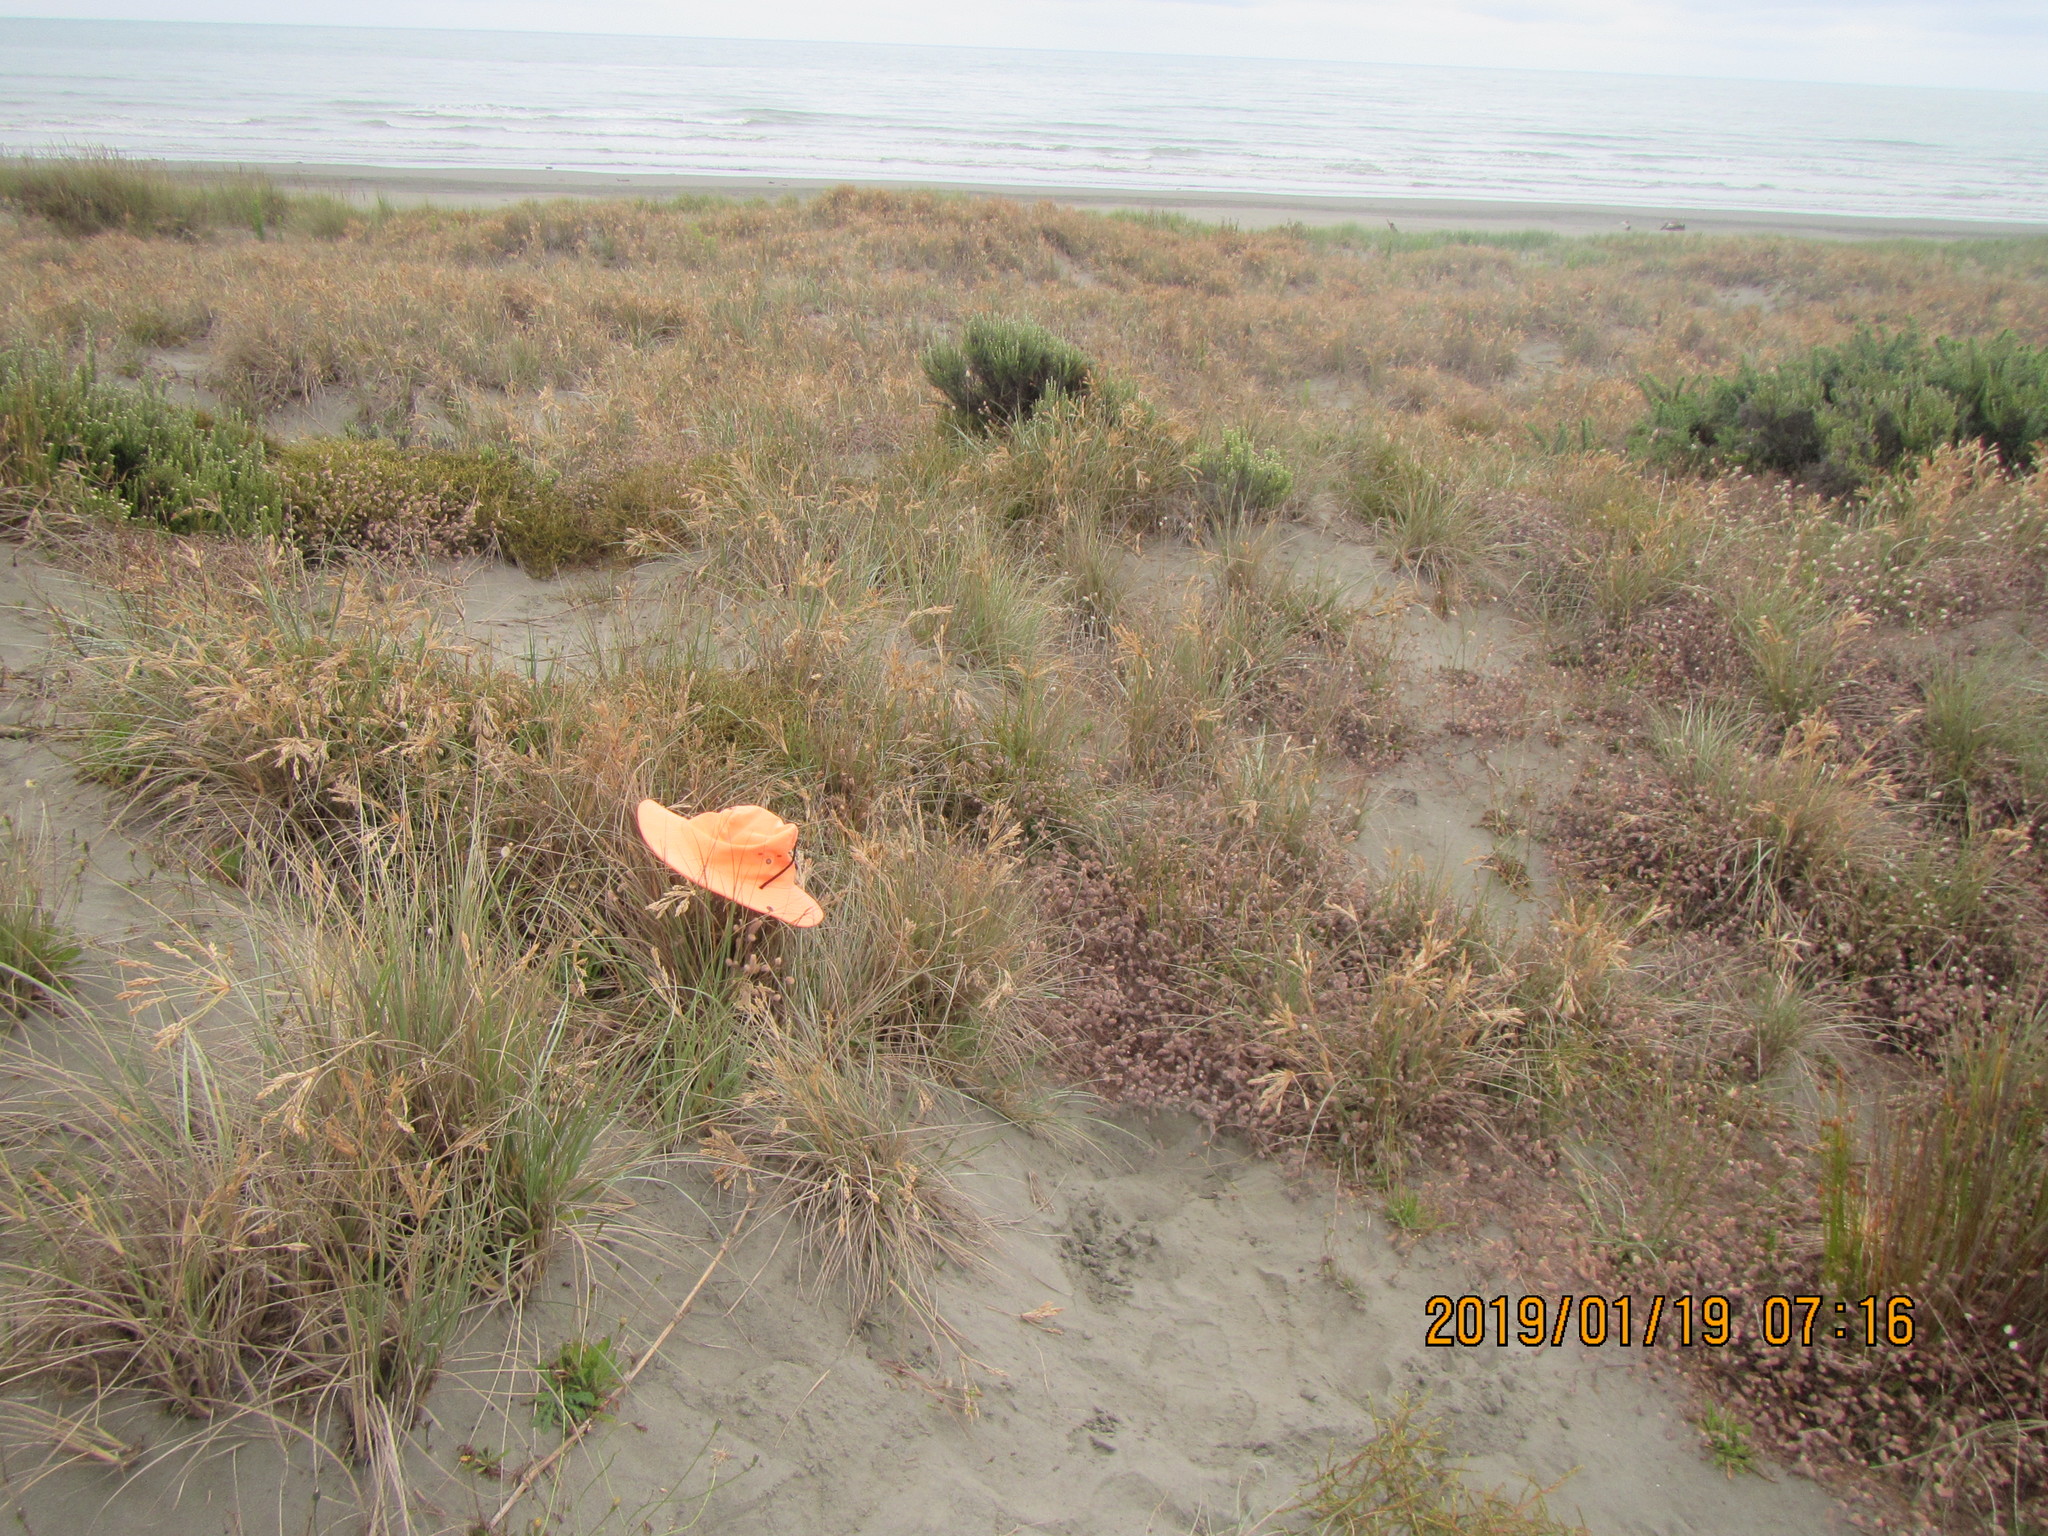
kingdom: Animalia
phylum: Arthropoda
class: Arachnida
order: Araneae
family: Thomisidae
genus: Sidymella
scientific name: Sidymella trapezia
